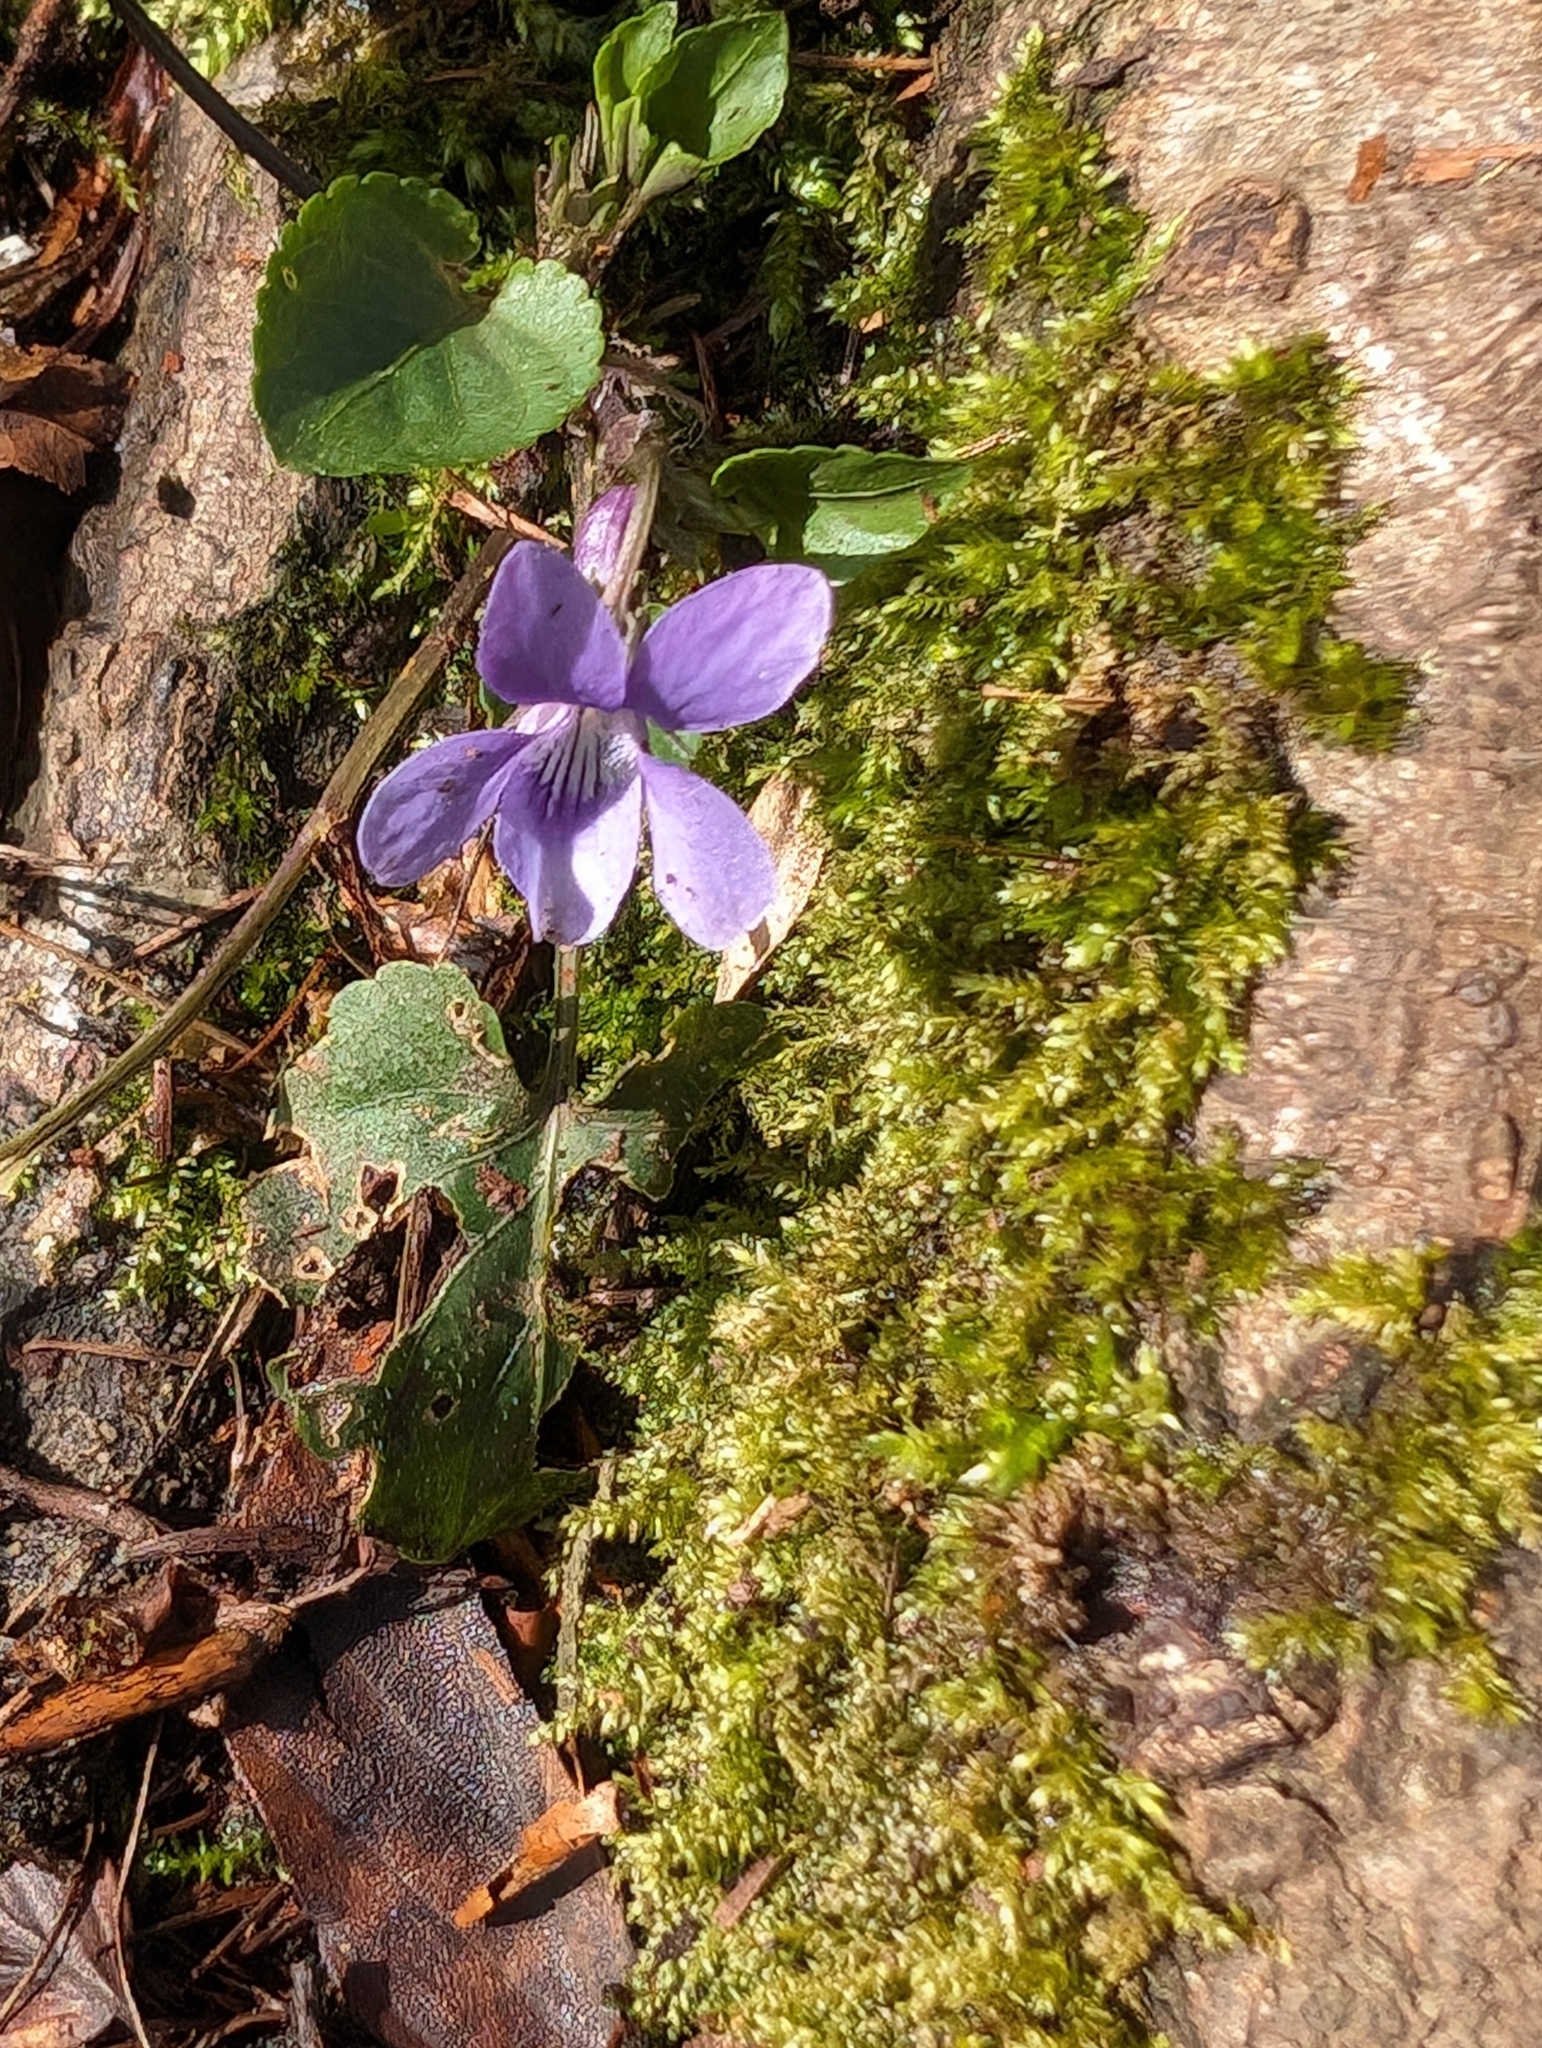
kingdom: Plantae
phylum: Tracheophyta
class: Magnoliopsida
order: Malpighiales
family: Violaceae
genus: Viola
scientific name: Viola reichenbachiana
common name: Early dog-violet
